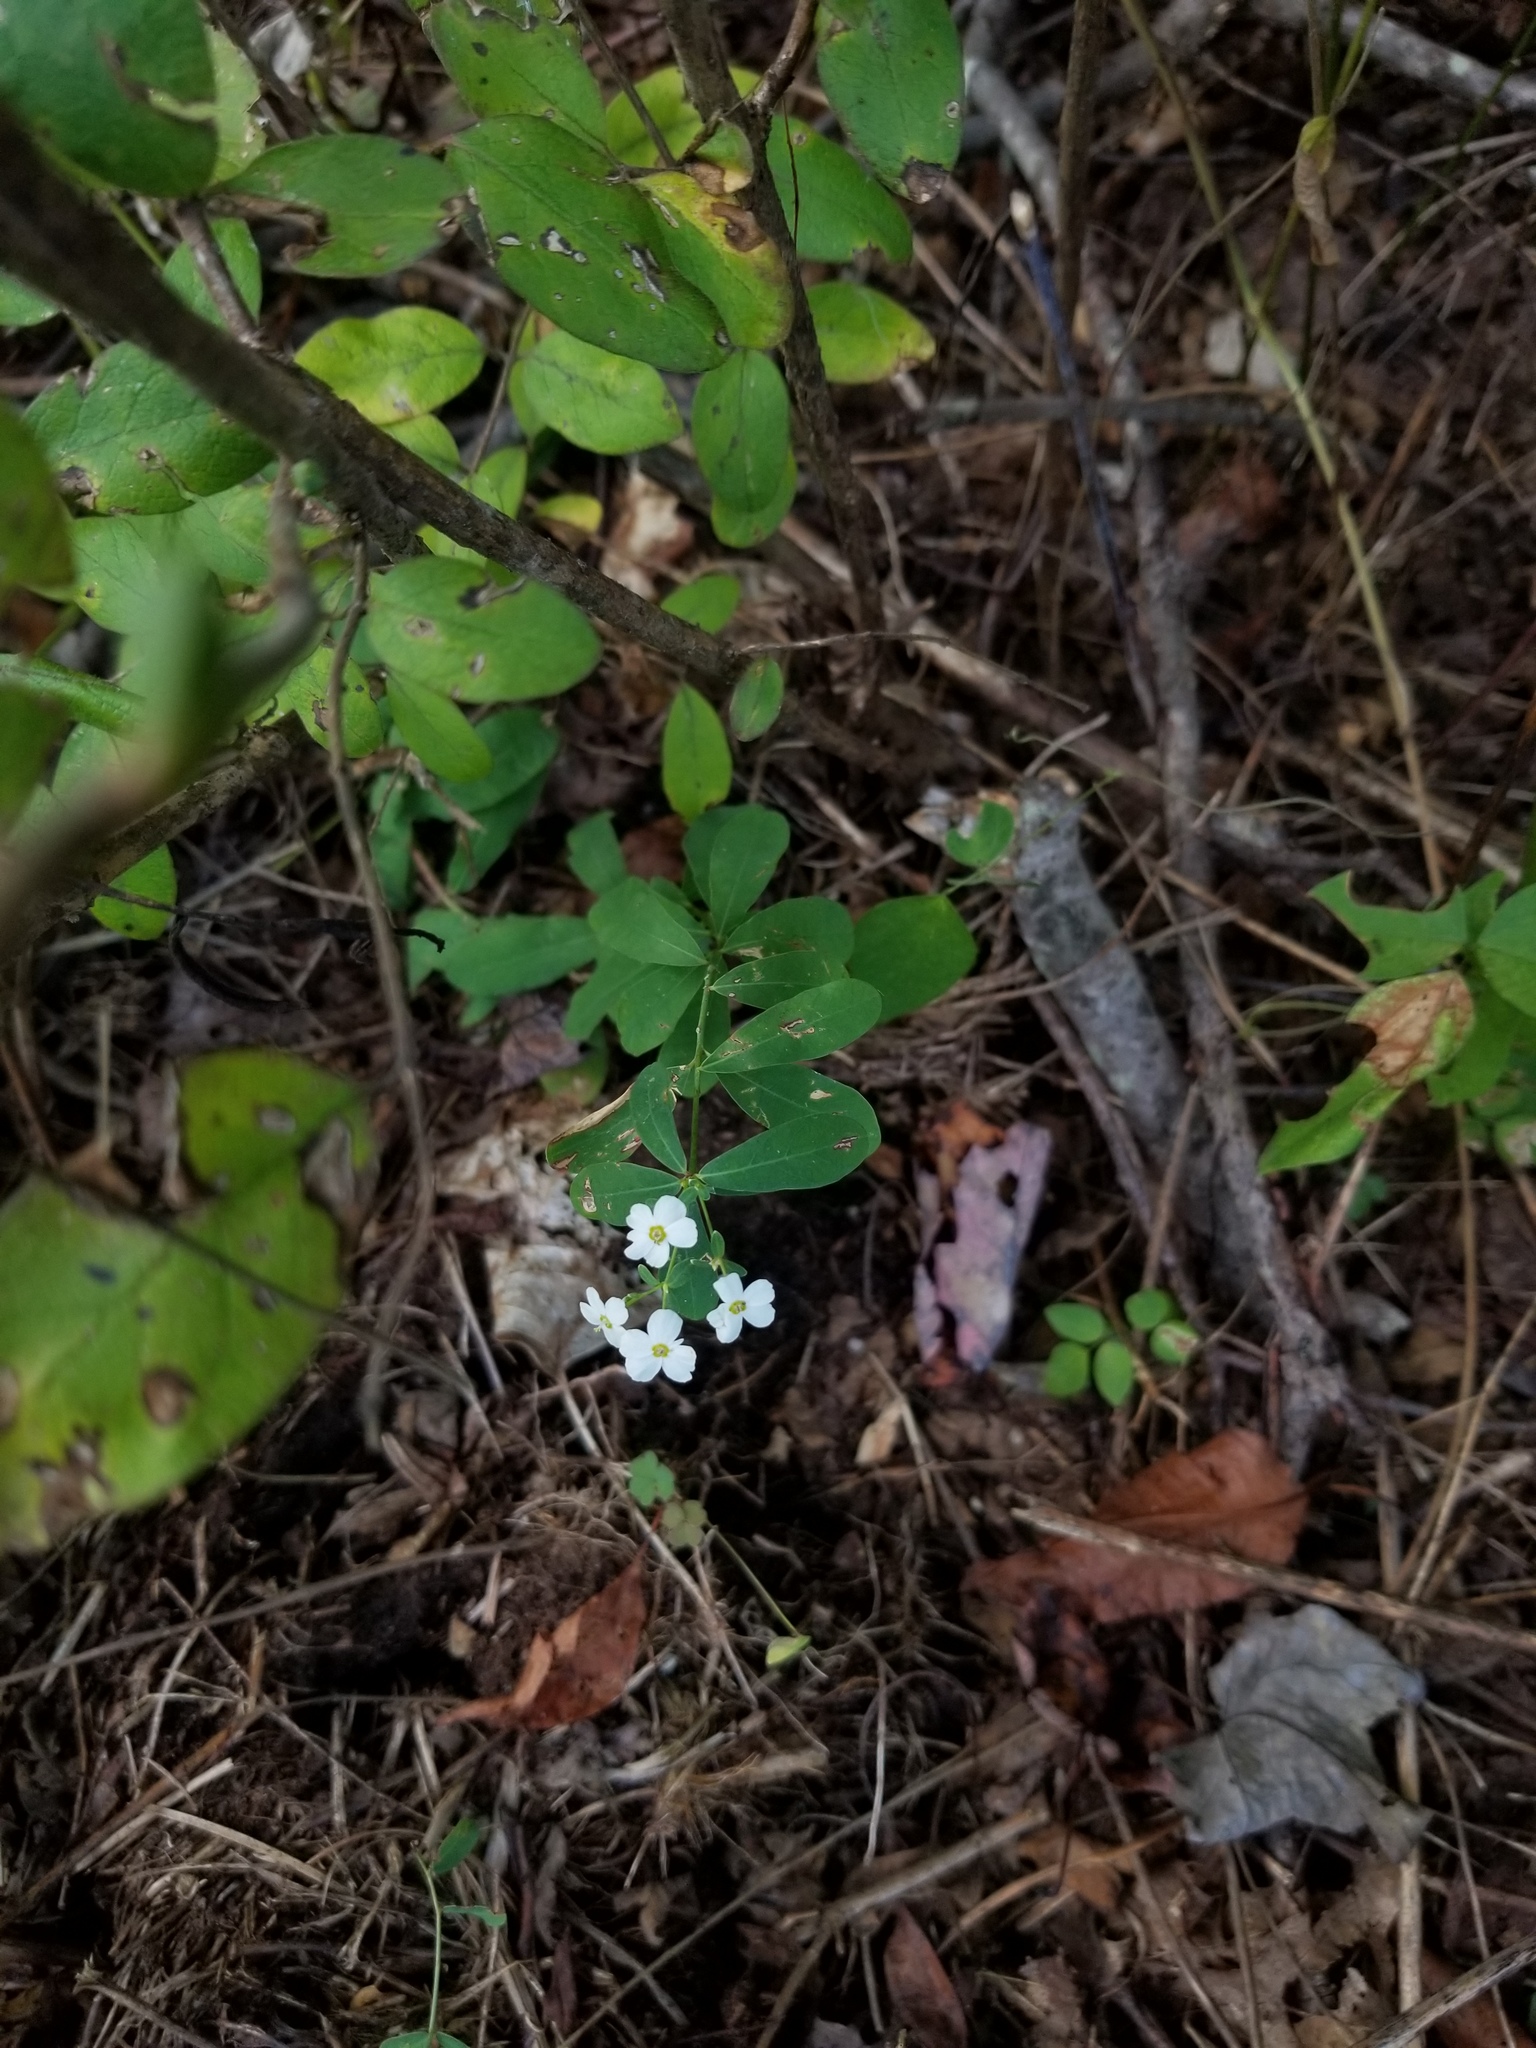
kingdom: Plantae
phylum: Tracheophyta
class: Magnoliopsida
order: Malpighiales
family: Euphorbiaceae
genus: Euphorbia
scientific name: Euphorbia corollata
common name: Flowering spurge
